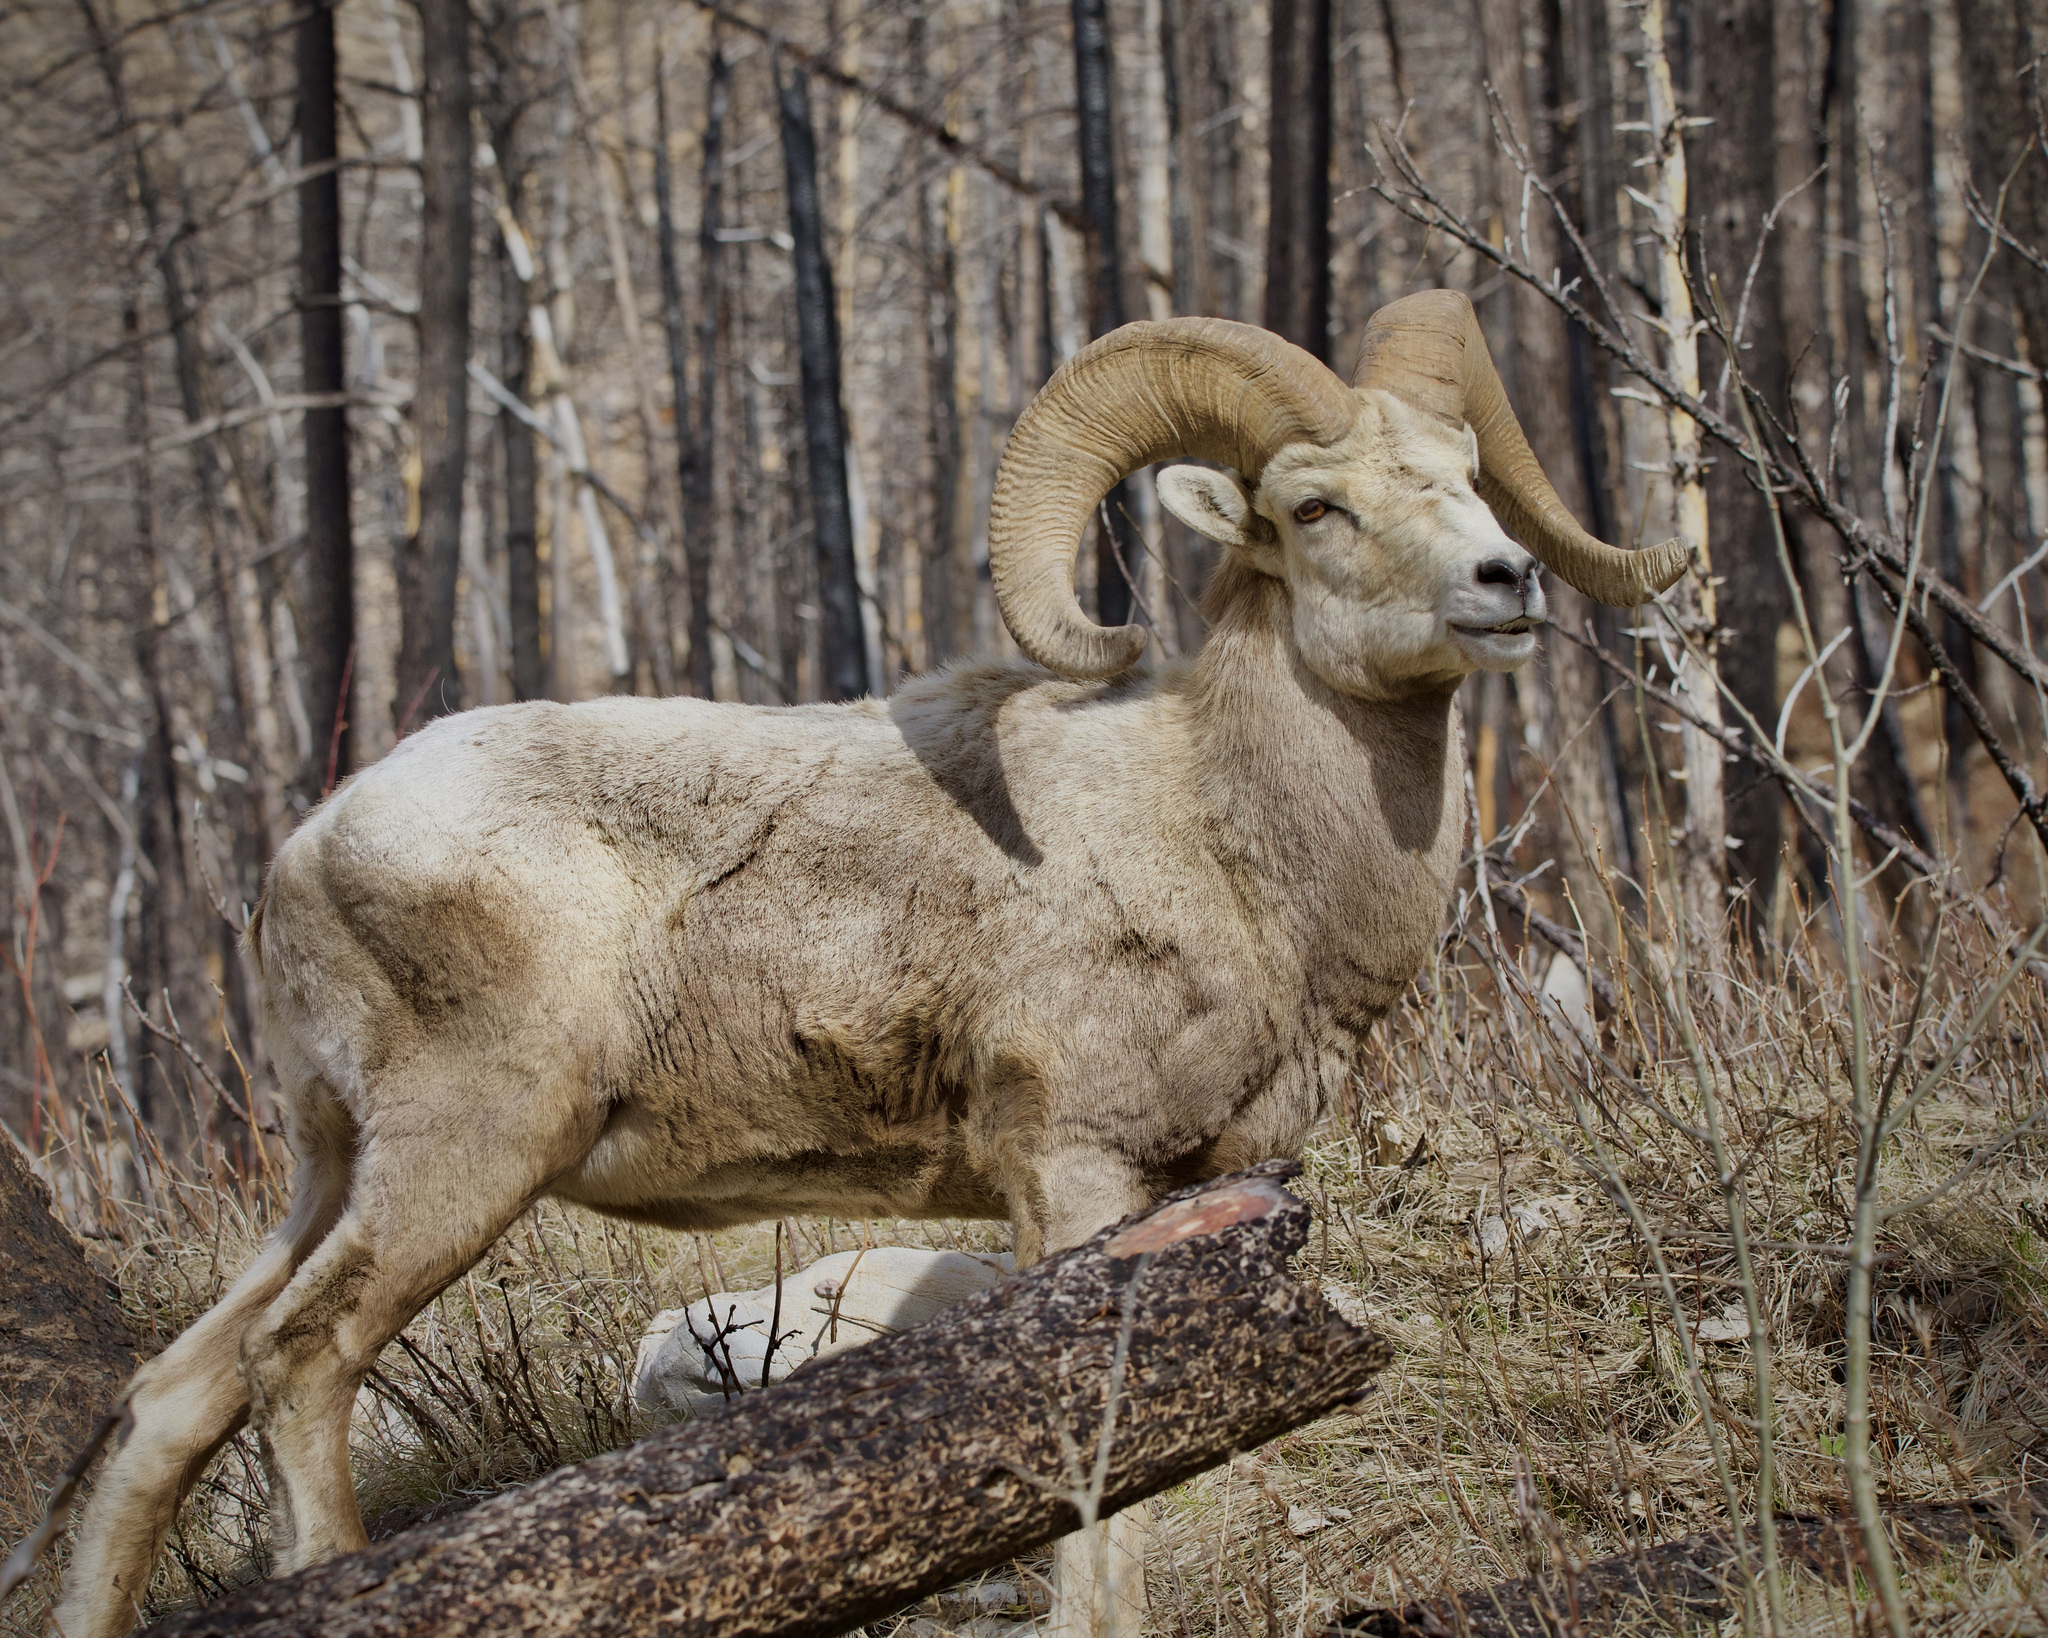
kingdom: Animalia
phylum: Chordata
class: Mammalia
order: Artiodactyla
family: Bovidae
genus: Ovis
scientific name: Ovis canadensis
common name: Bighorn sheep
